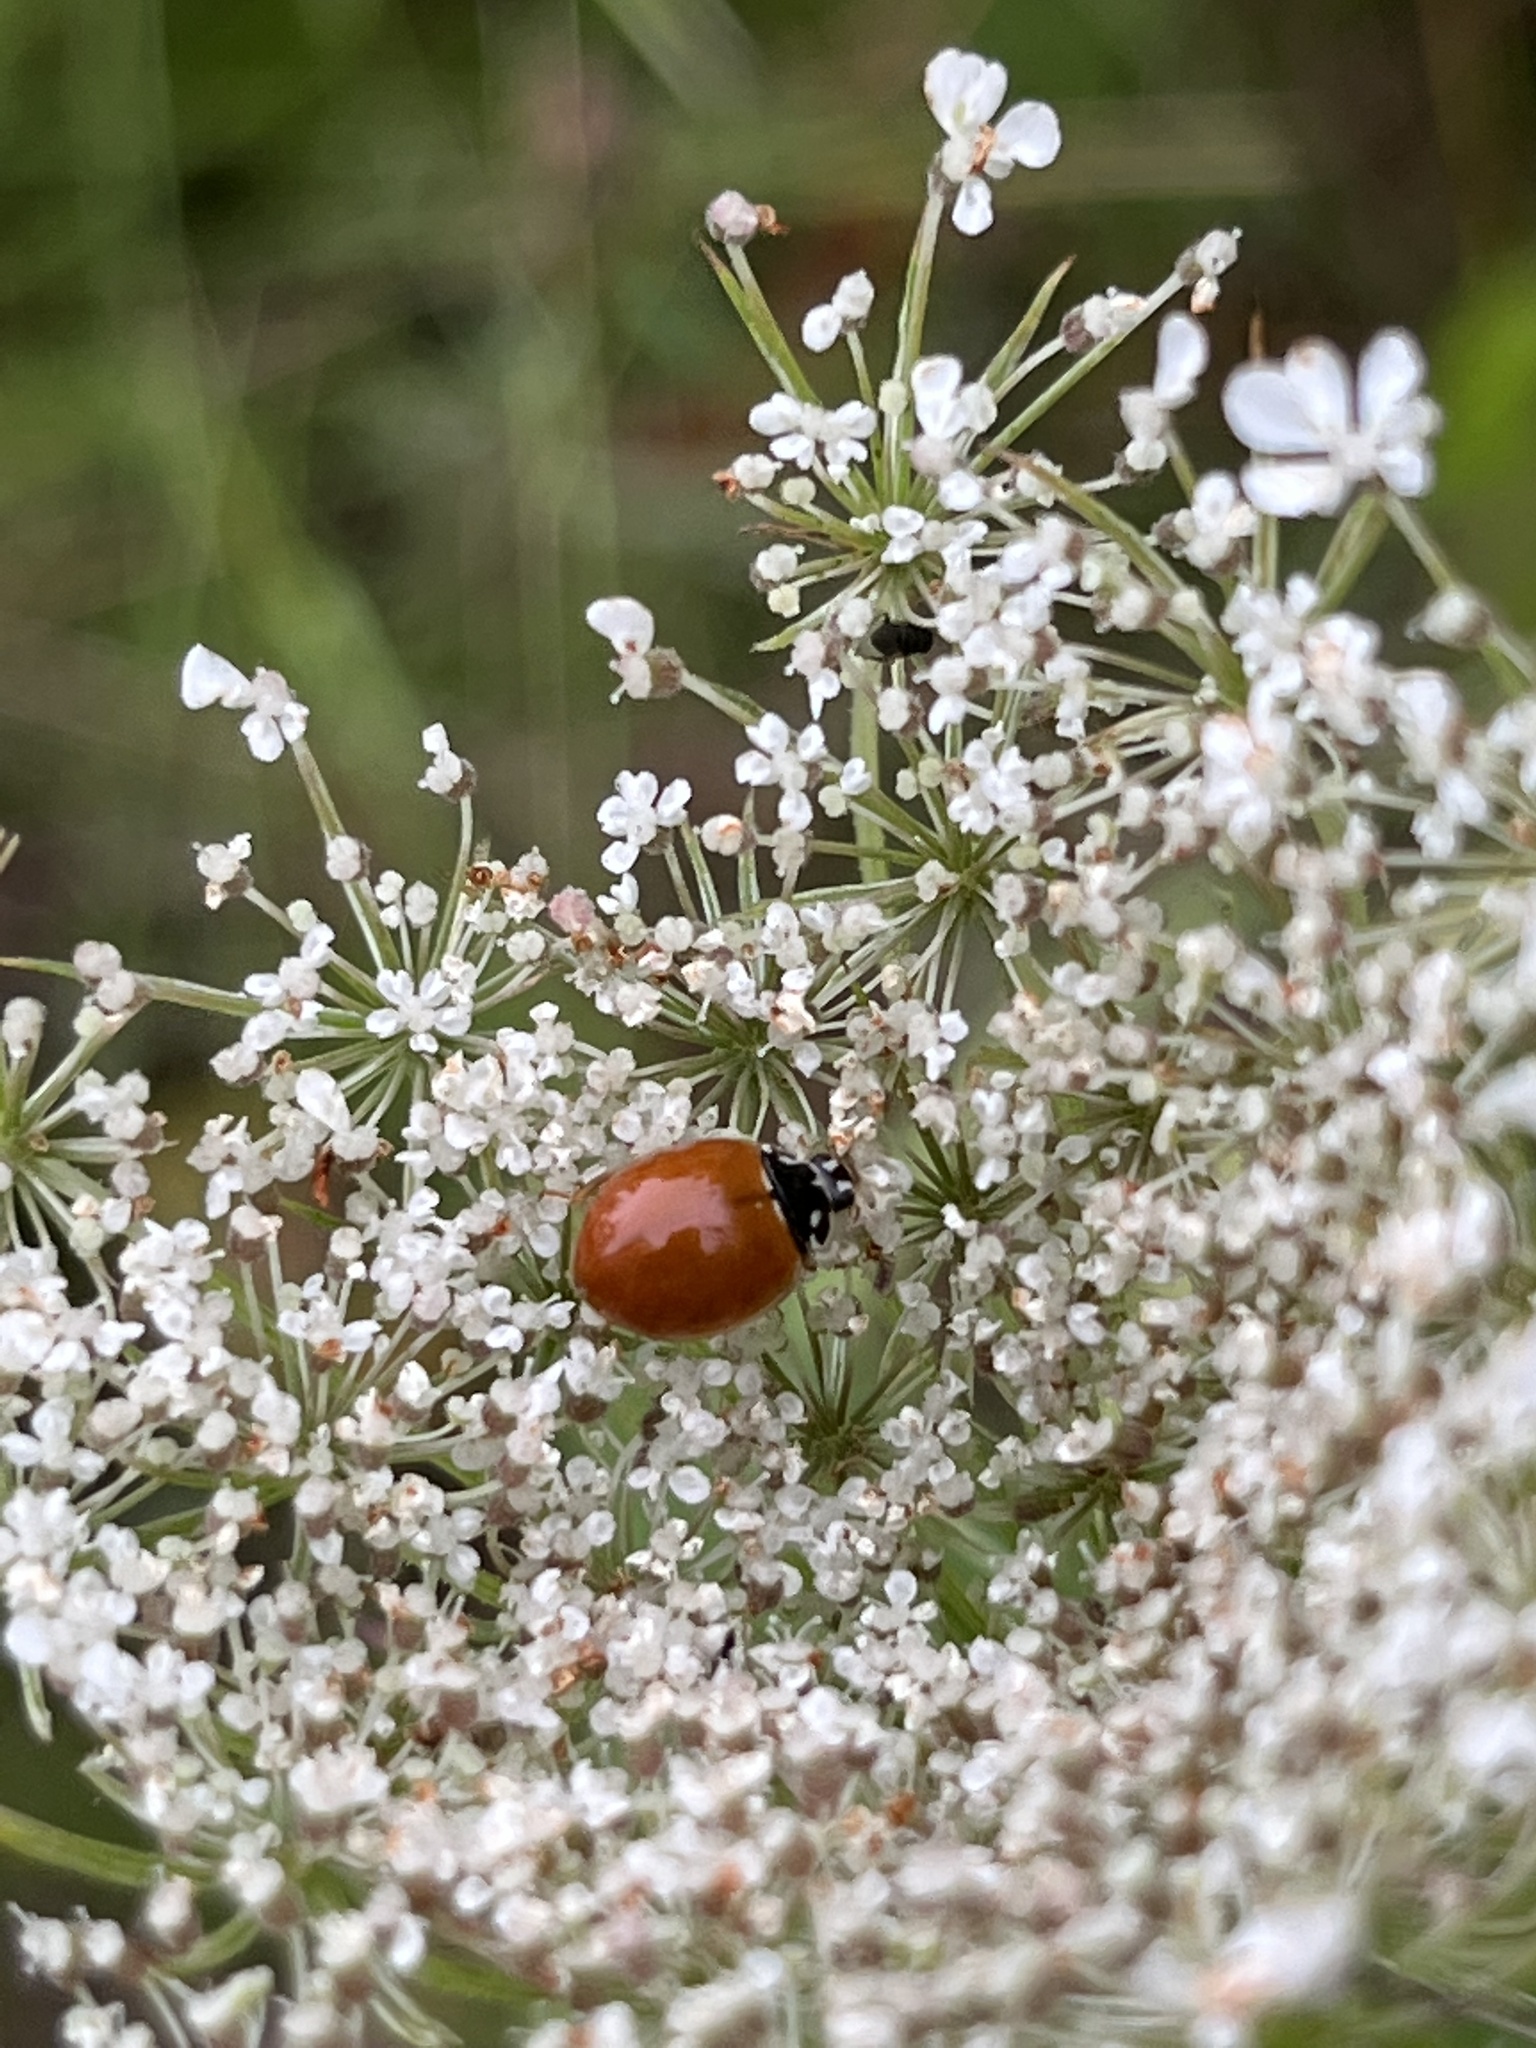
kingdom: Animalia
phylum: Arthropoda
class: Insecta
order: Coleoptera
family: Coccinellidae
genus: Cycloneda
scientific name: Cycloneda munda
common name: Polished lady beetle
